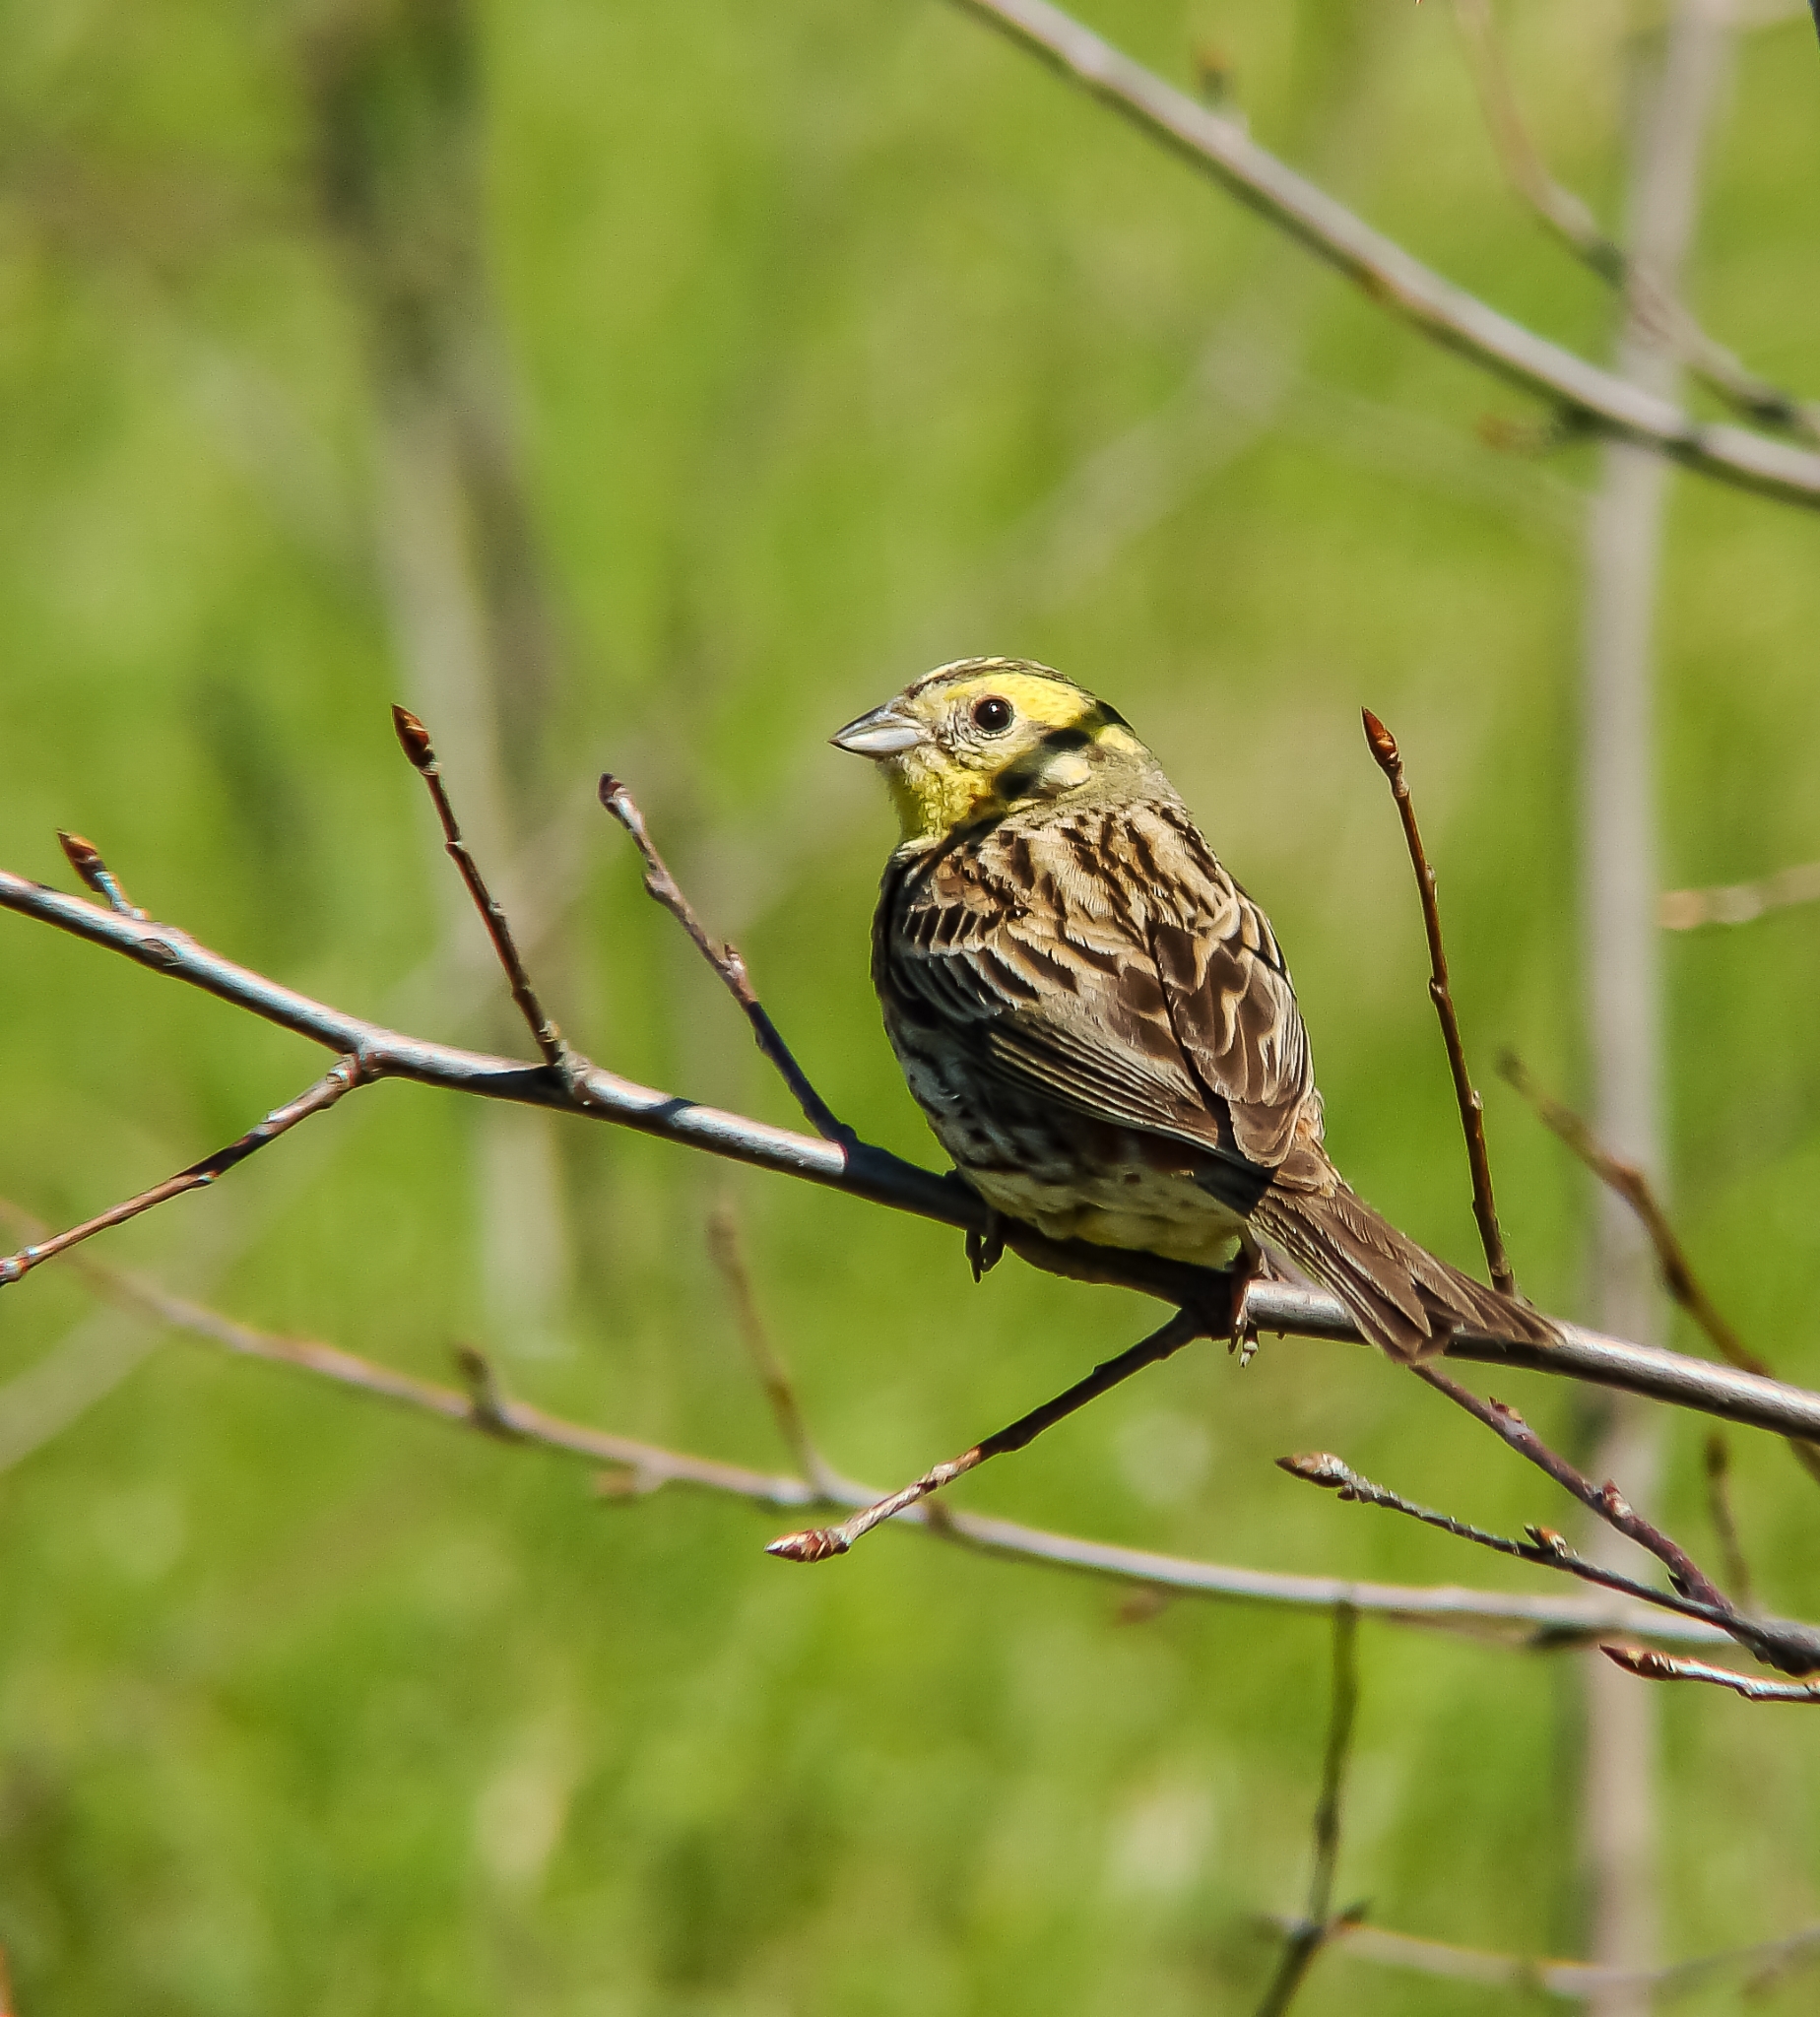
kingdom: Animalia
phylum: Chordata
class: Aves
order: Passeriformes
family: Emberizidae
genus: Emberiza
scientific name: Emberiza citrinella
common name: Yellowhammer
